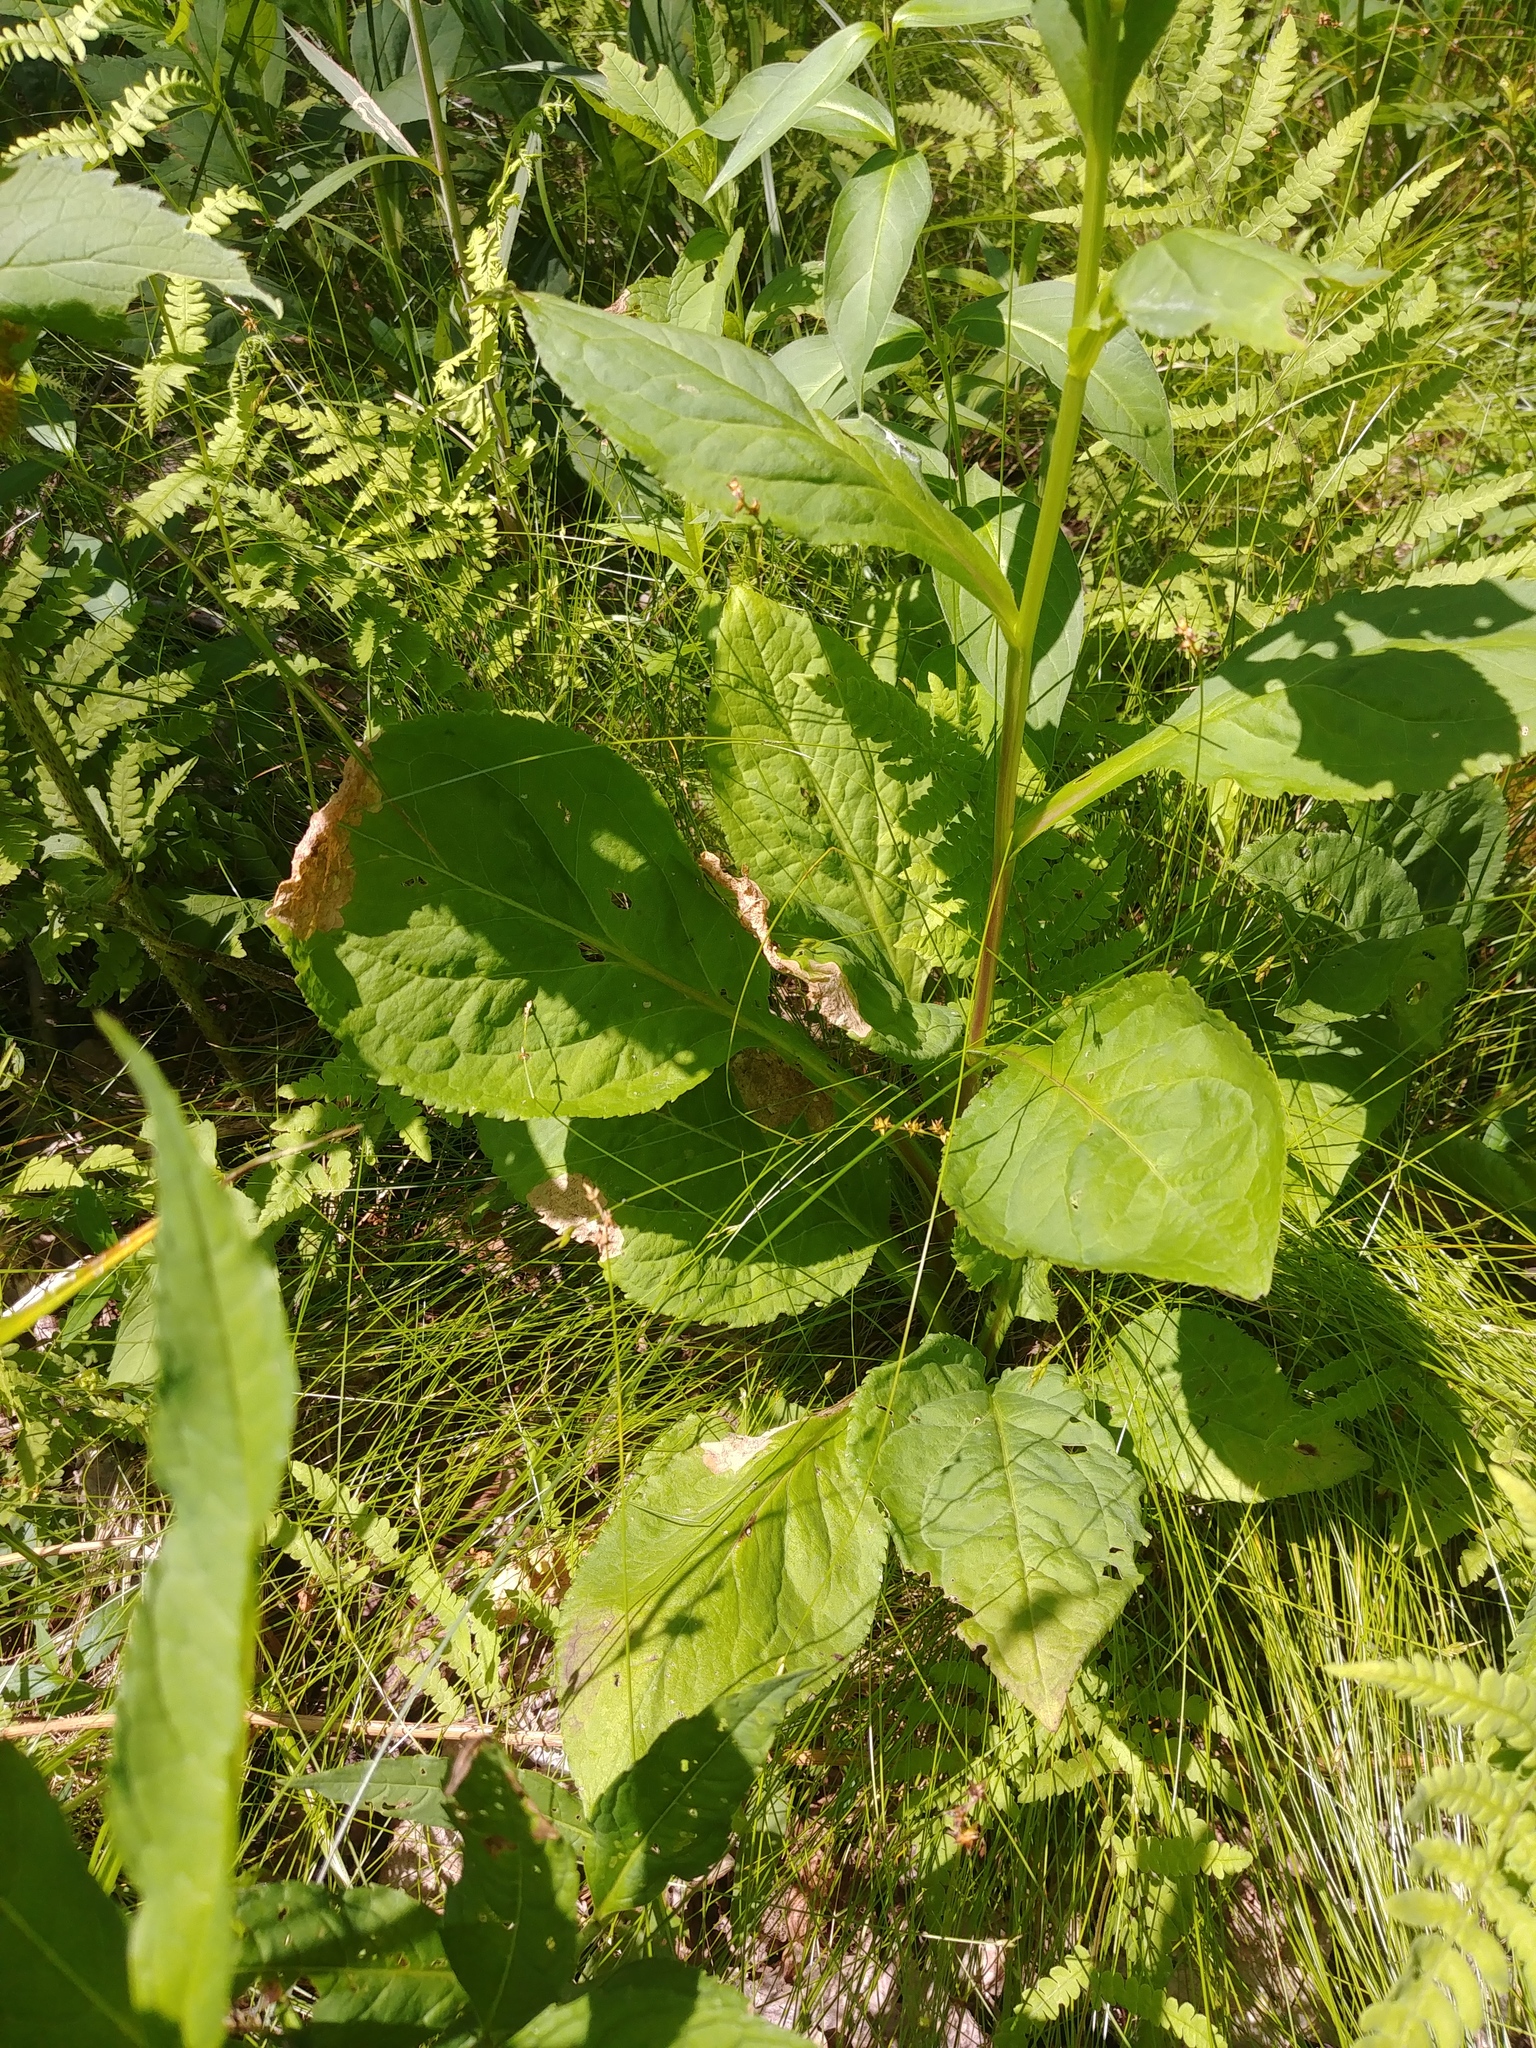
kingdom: Plantae
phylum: Tracheophyta
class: Magnoliopsida
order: Asterales
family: Asteraceae
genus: Solidago
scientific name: Solidago patula
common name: Rough-leaf goldenrod
